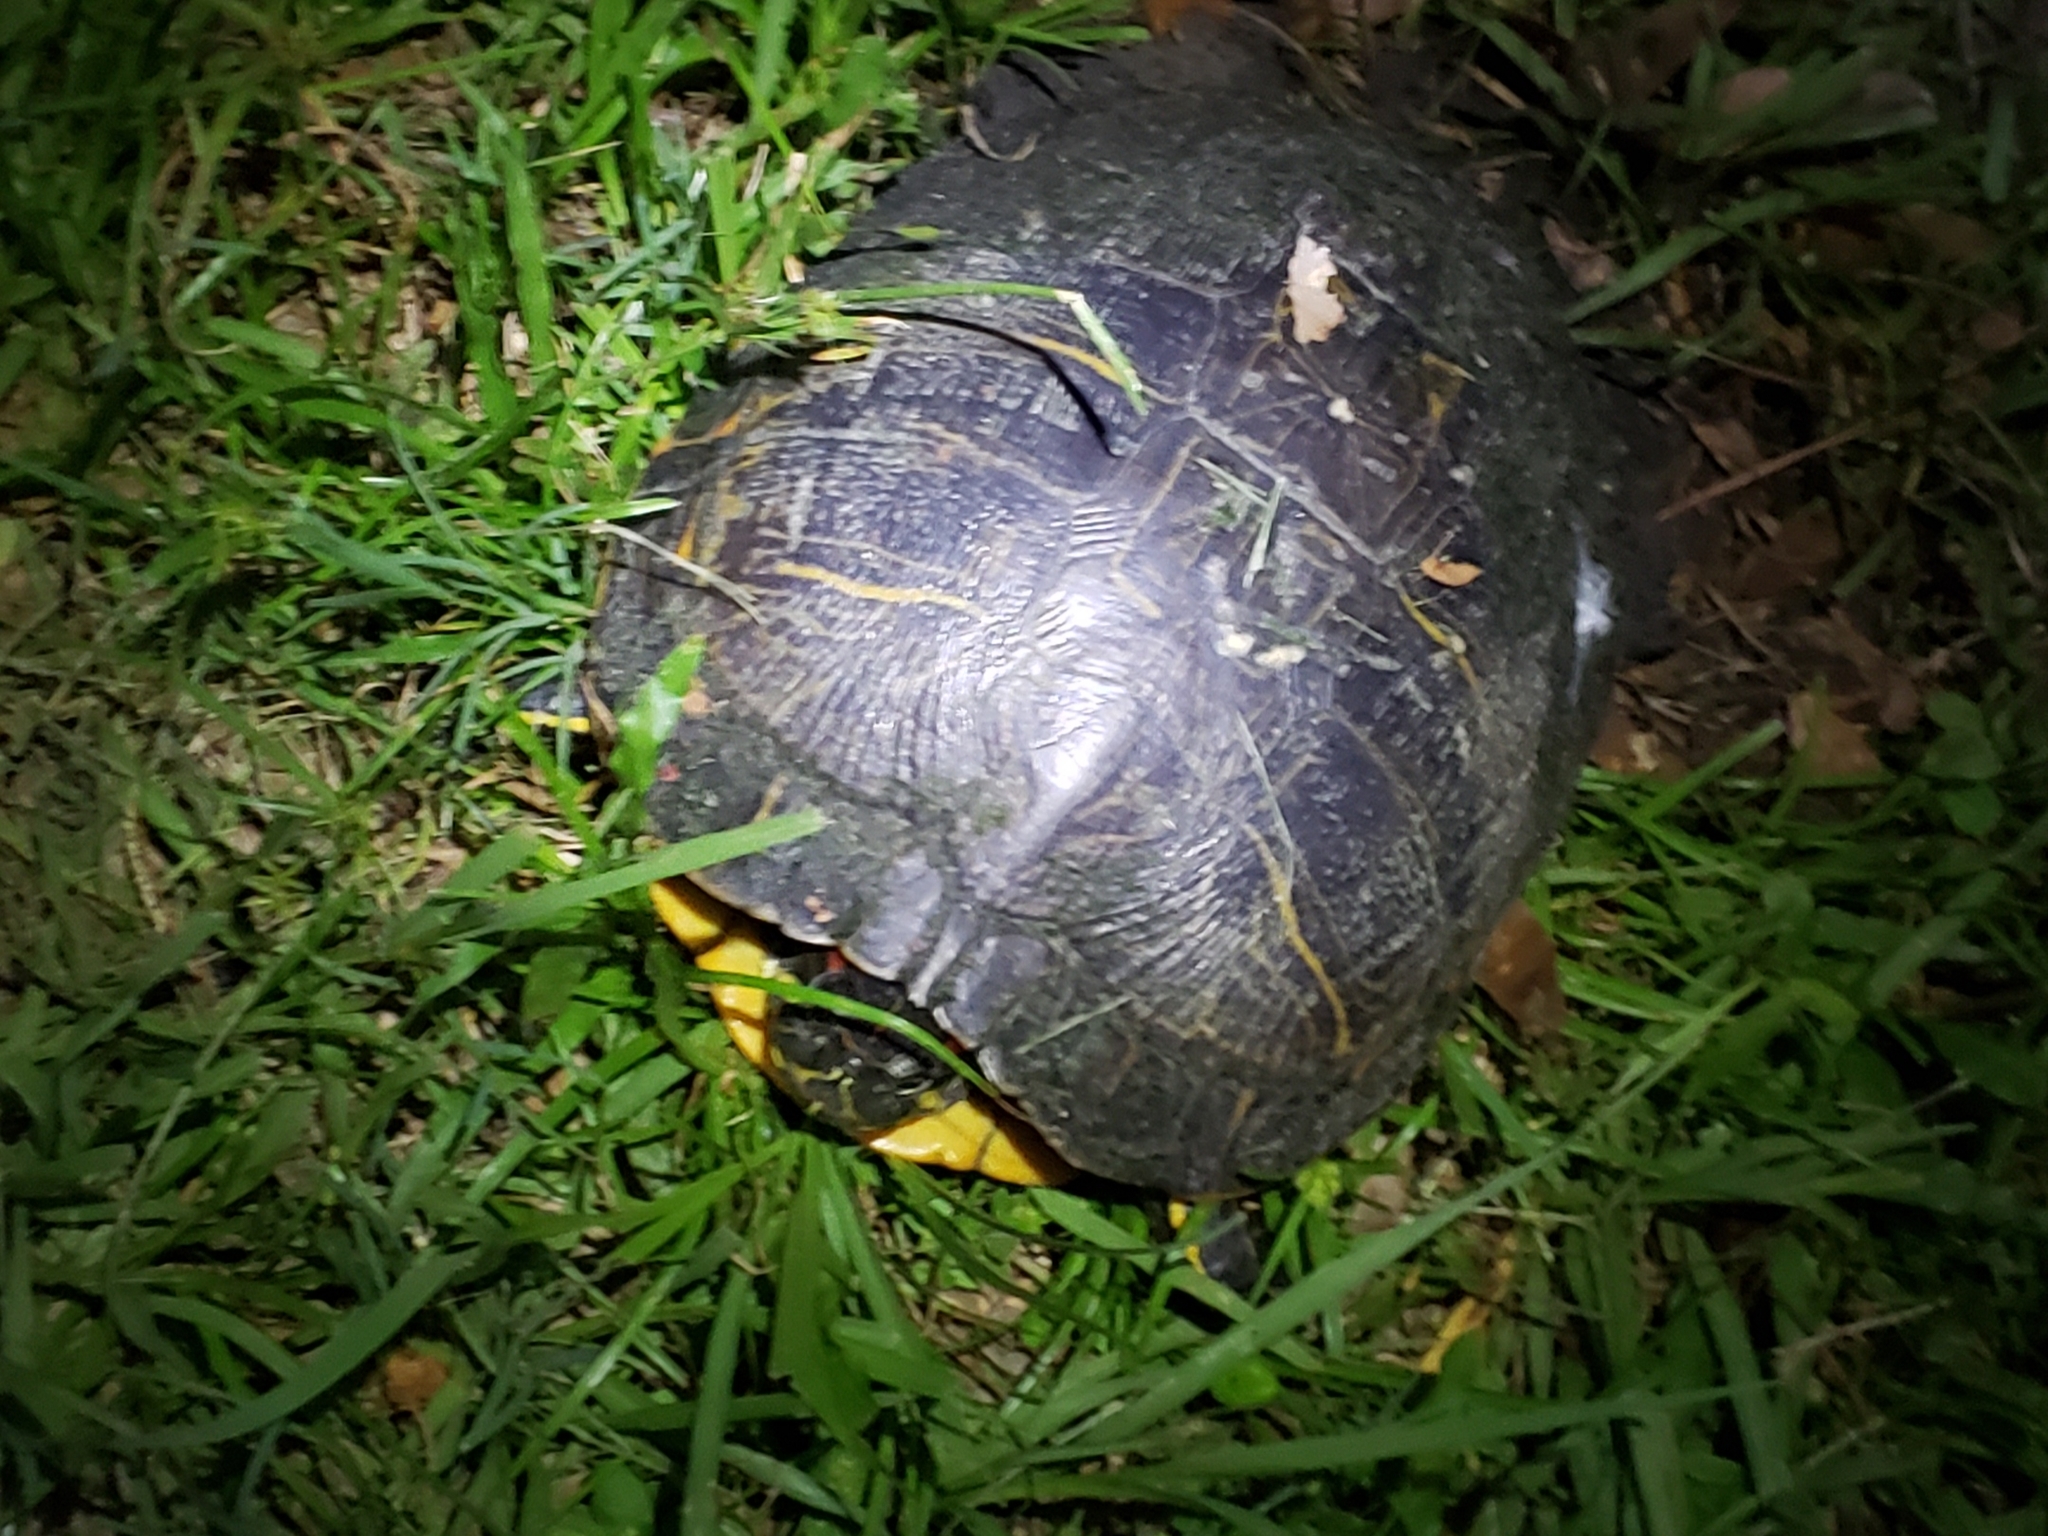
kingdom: Animalia
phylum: Chordata
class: Testudines
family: Emydidae
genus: Trachemys
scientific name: Trachemys scripta
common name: Slider
